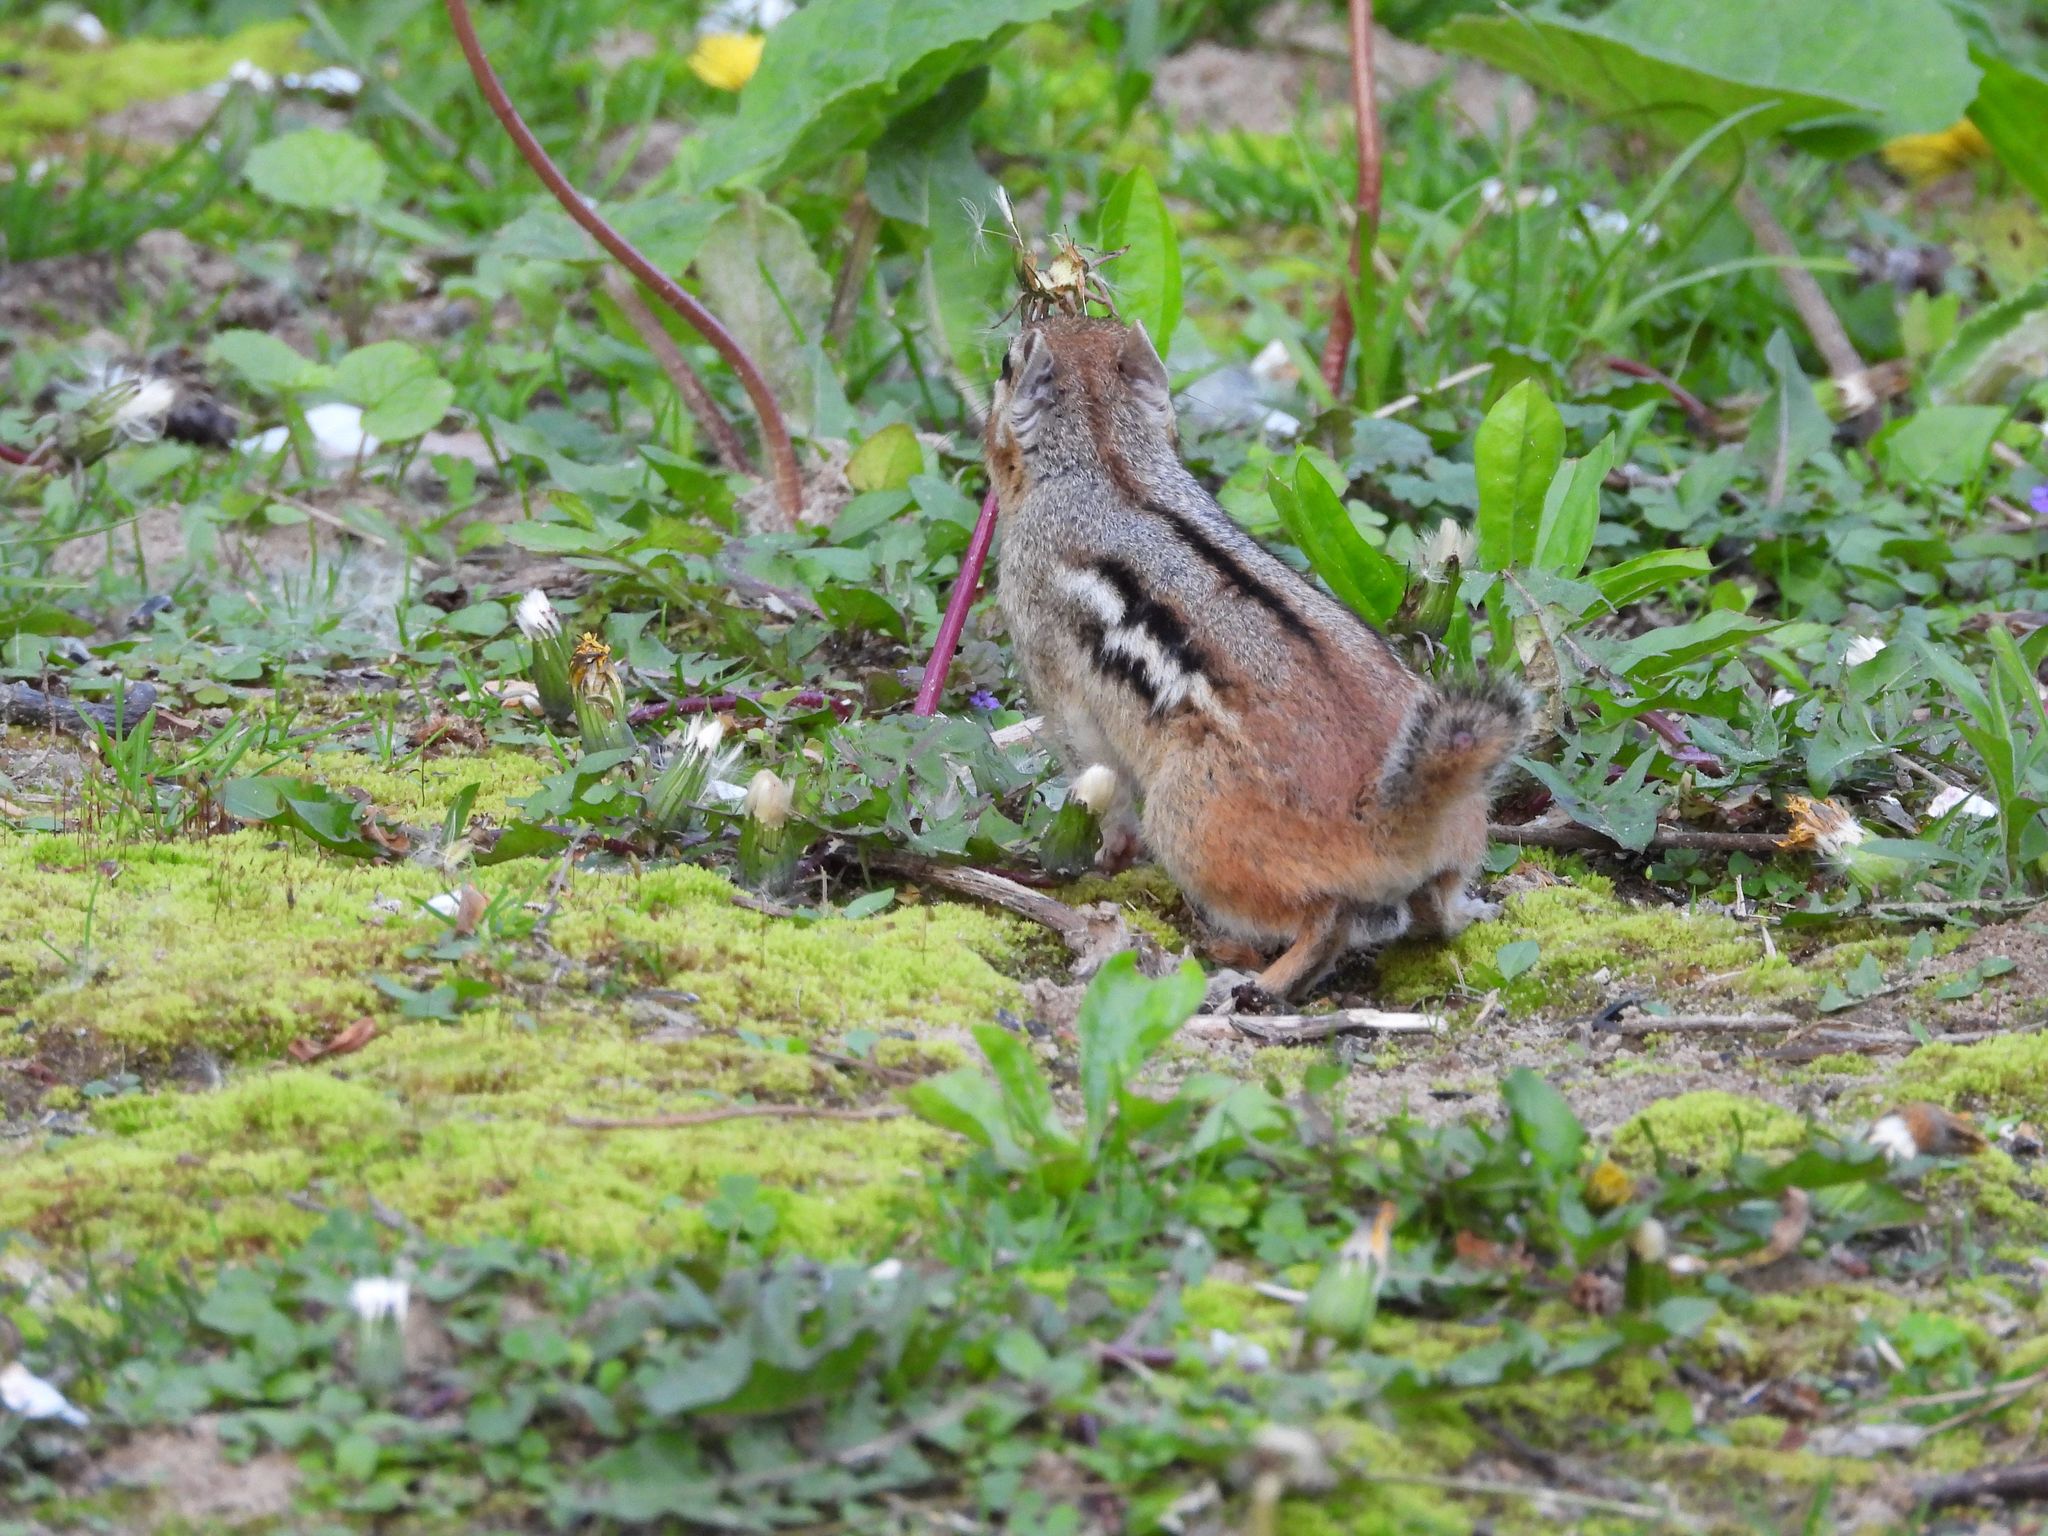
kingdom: Animalia
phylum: Chordata
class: Mammalia
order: Rodentia
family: Sciuridae
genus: Tamias
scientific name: Tamias striatus
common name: Eastern chipmunk
